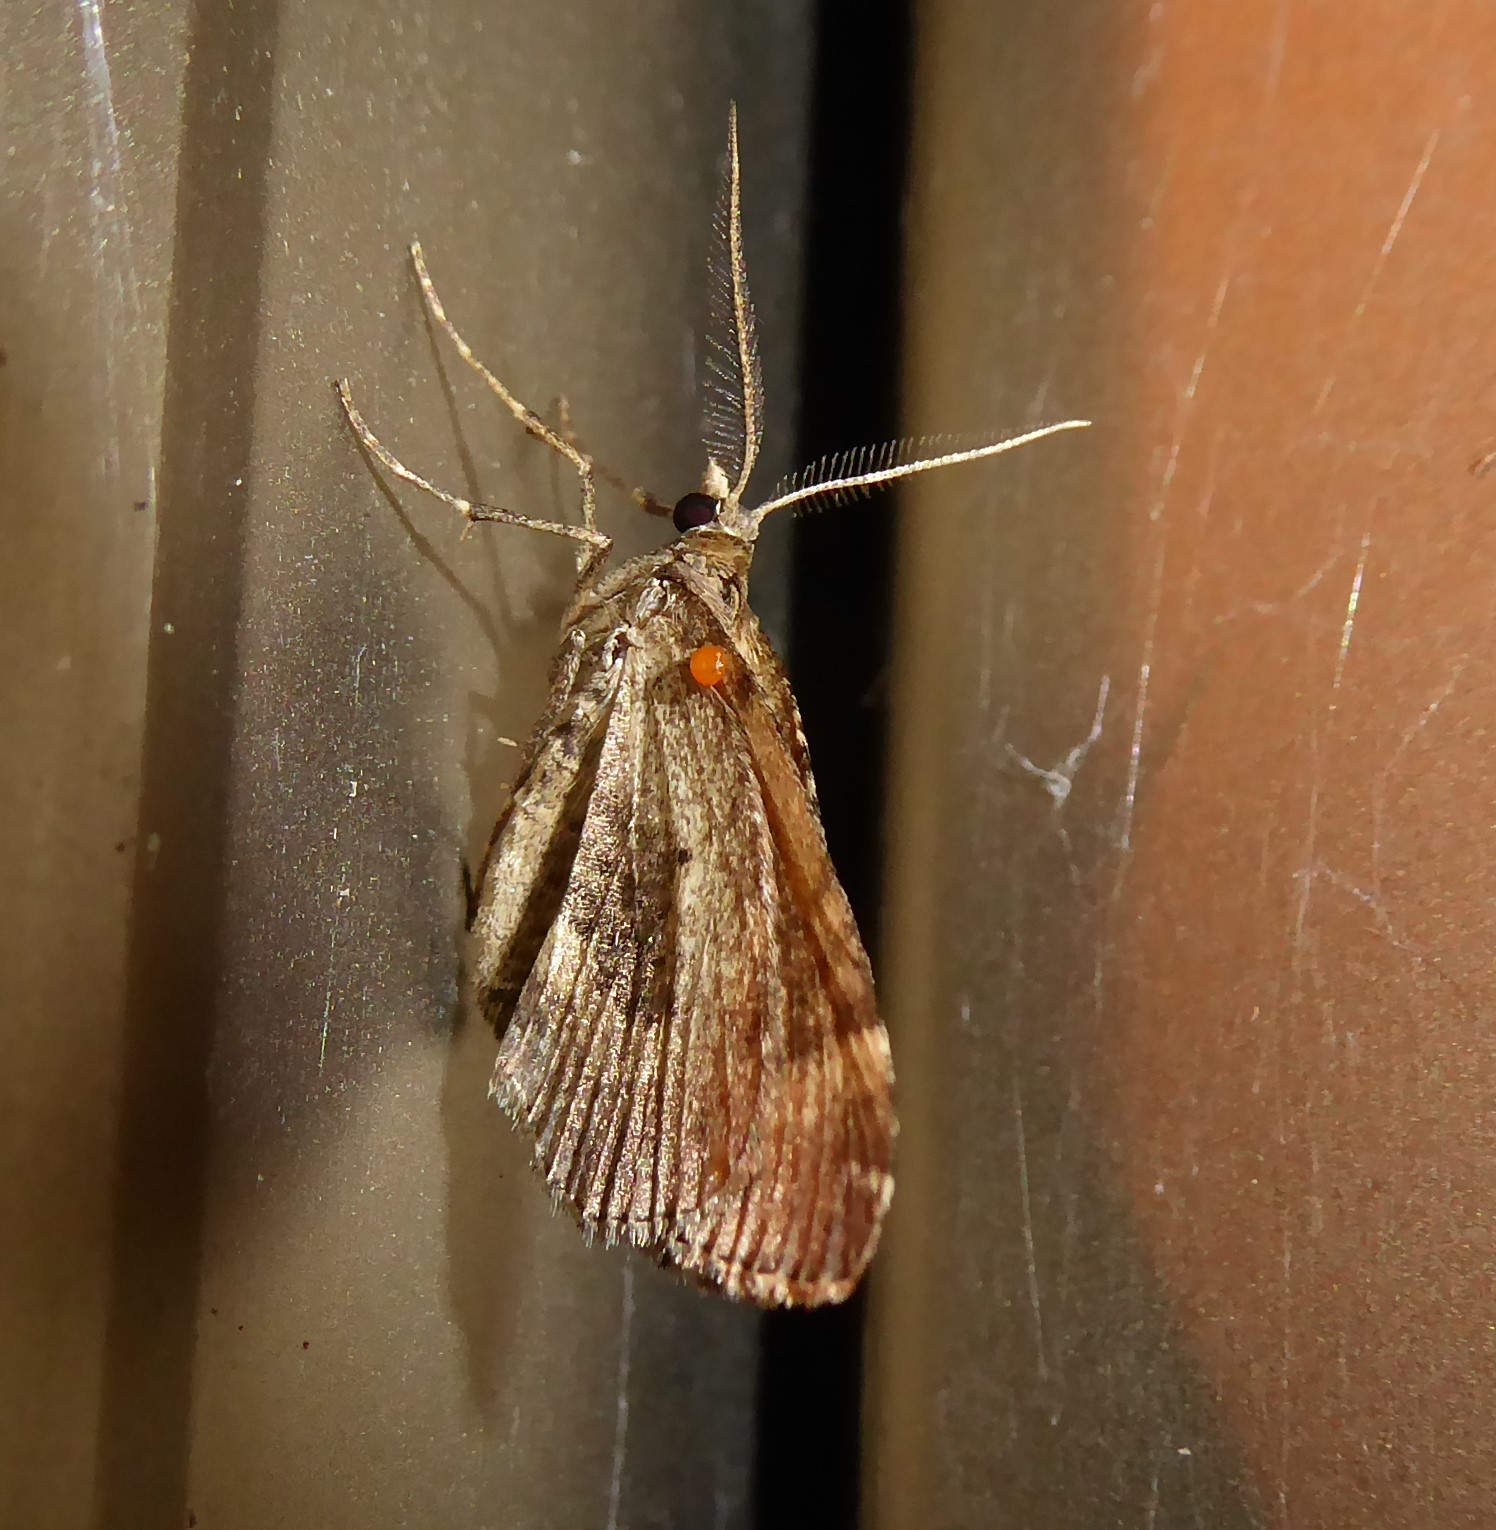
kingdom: Animalia
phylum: Arthropoda
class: Insecta
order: Lepidoptera
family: Geometridae
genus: Asaphodes
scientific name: Asaphodes aegrota
